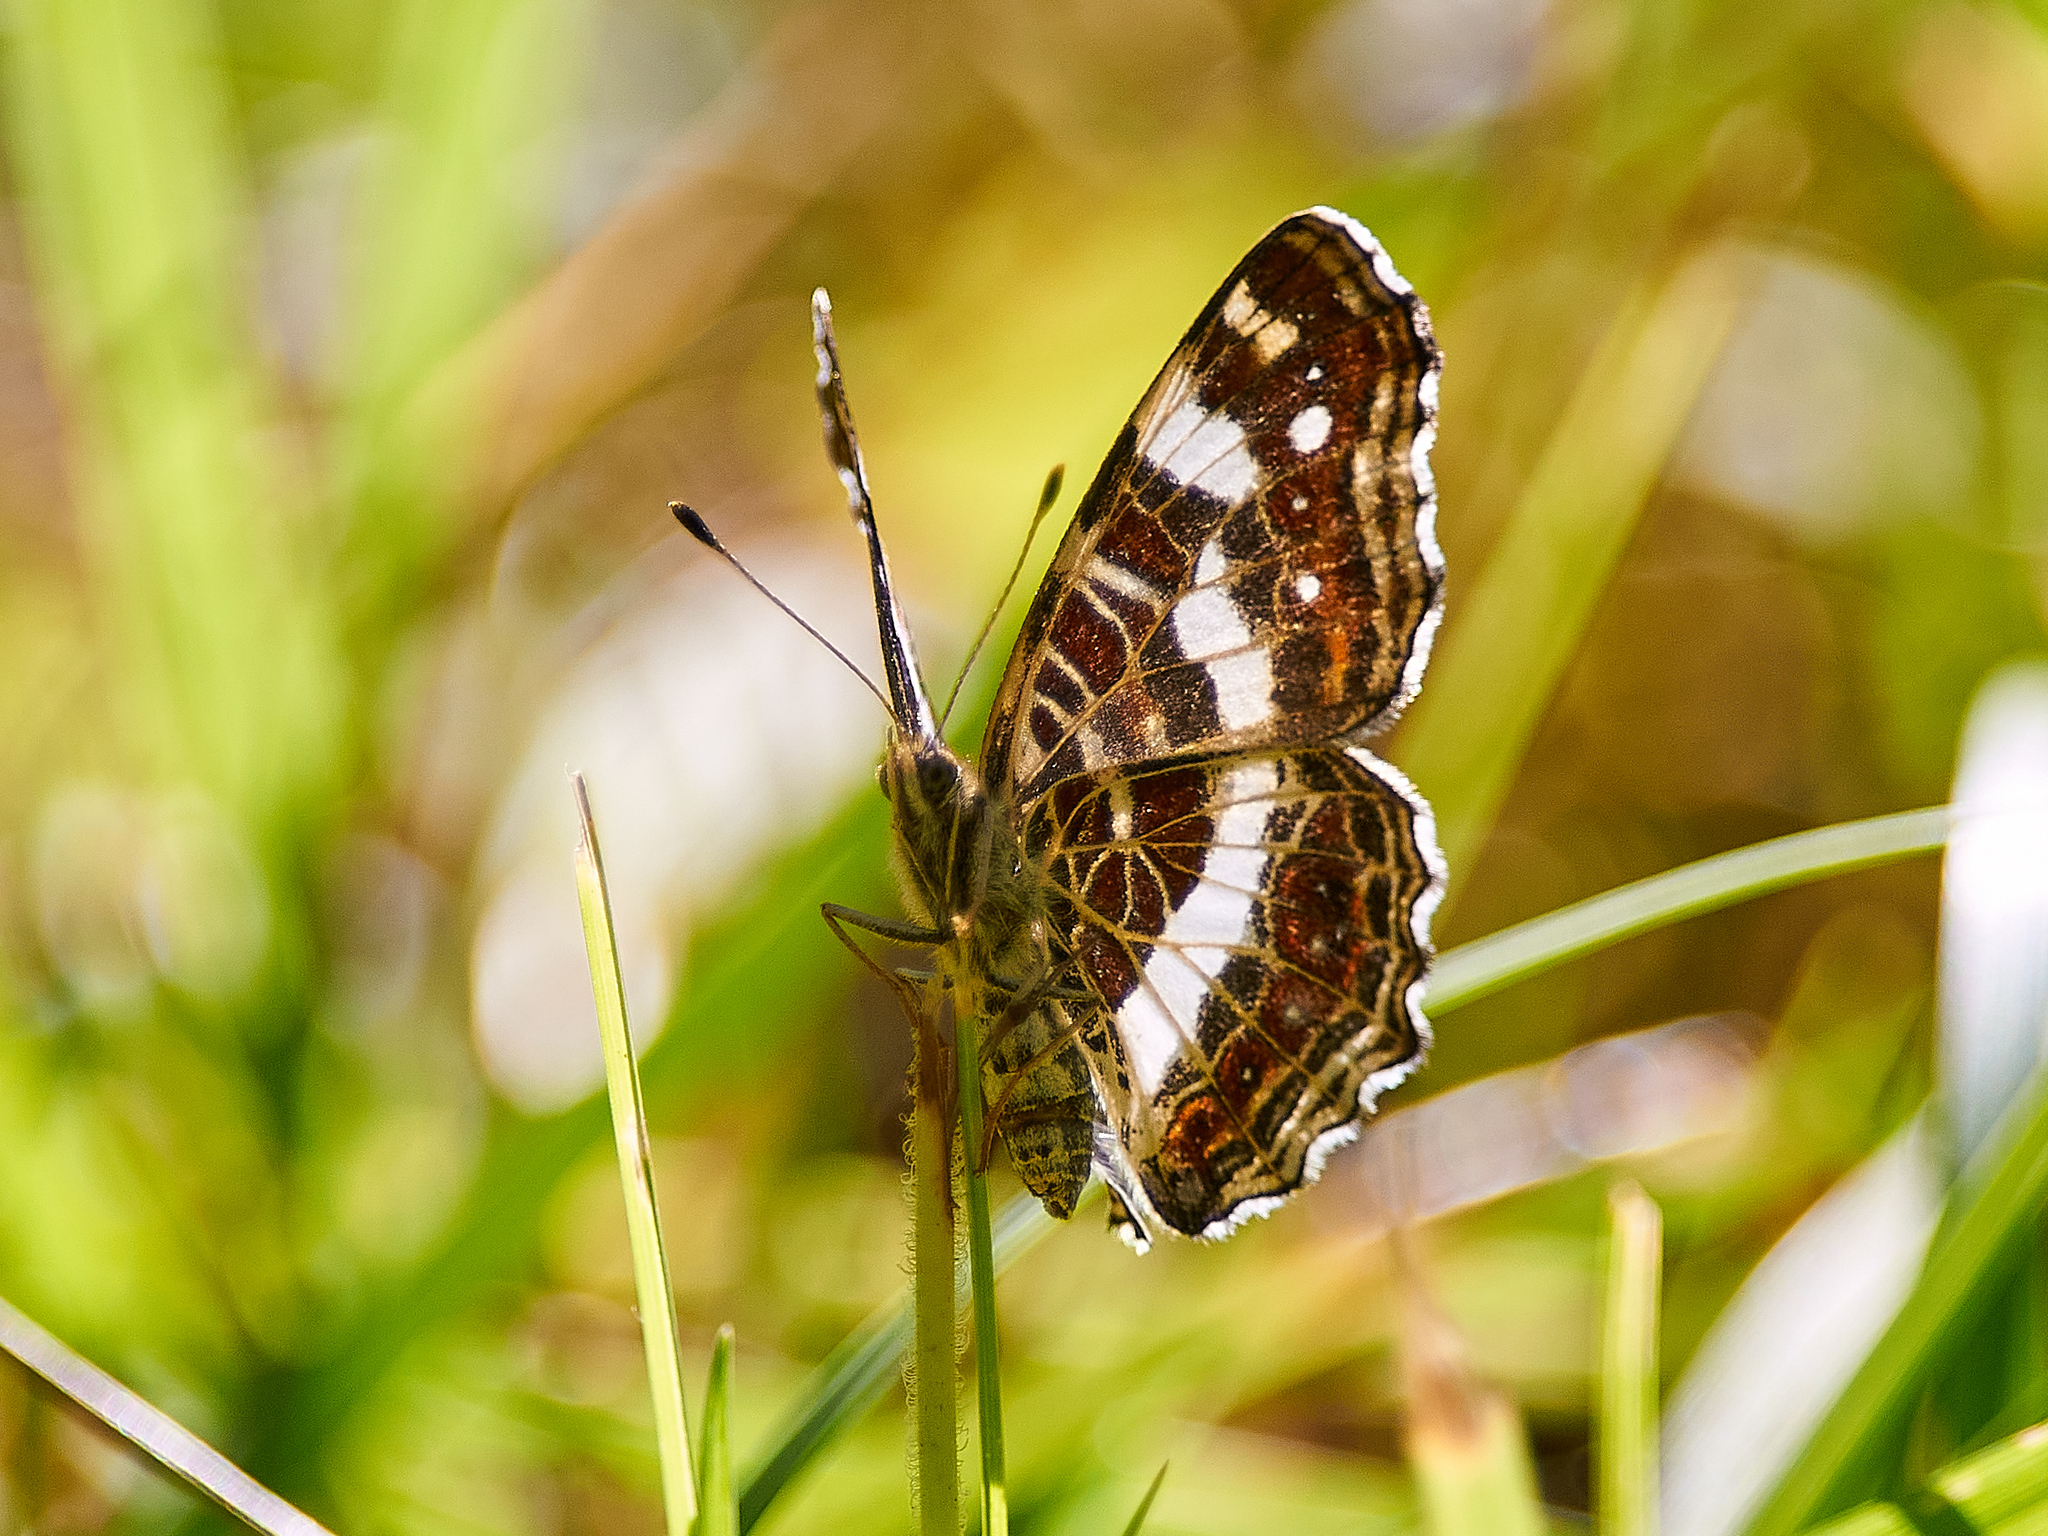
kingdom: Animalia
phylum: Arthropoda
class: Insecta
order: Lepidoptera
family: Nymphalidae
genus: Araschnia
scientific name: Araschnia levana
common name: Map butterfly
